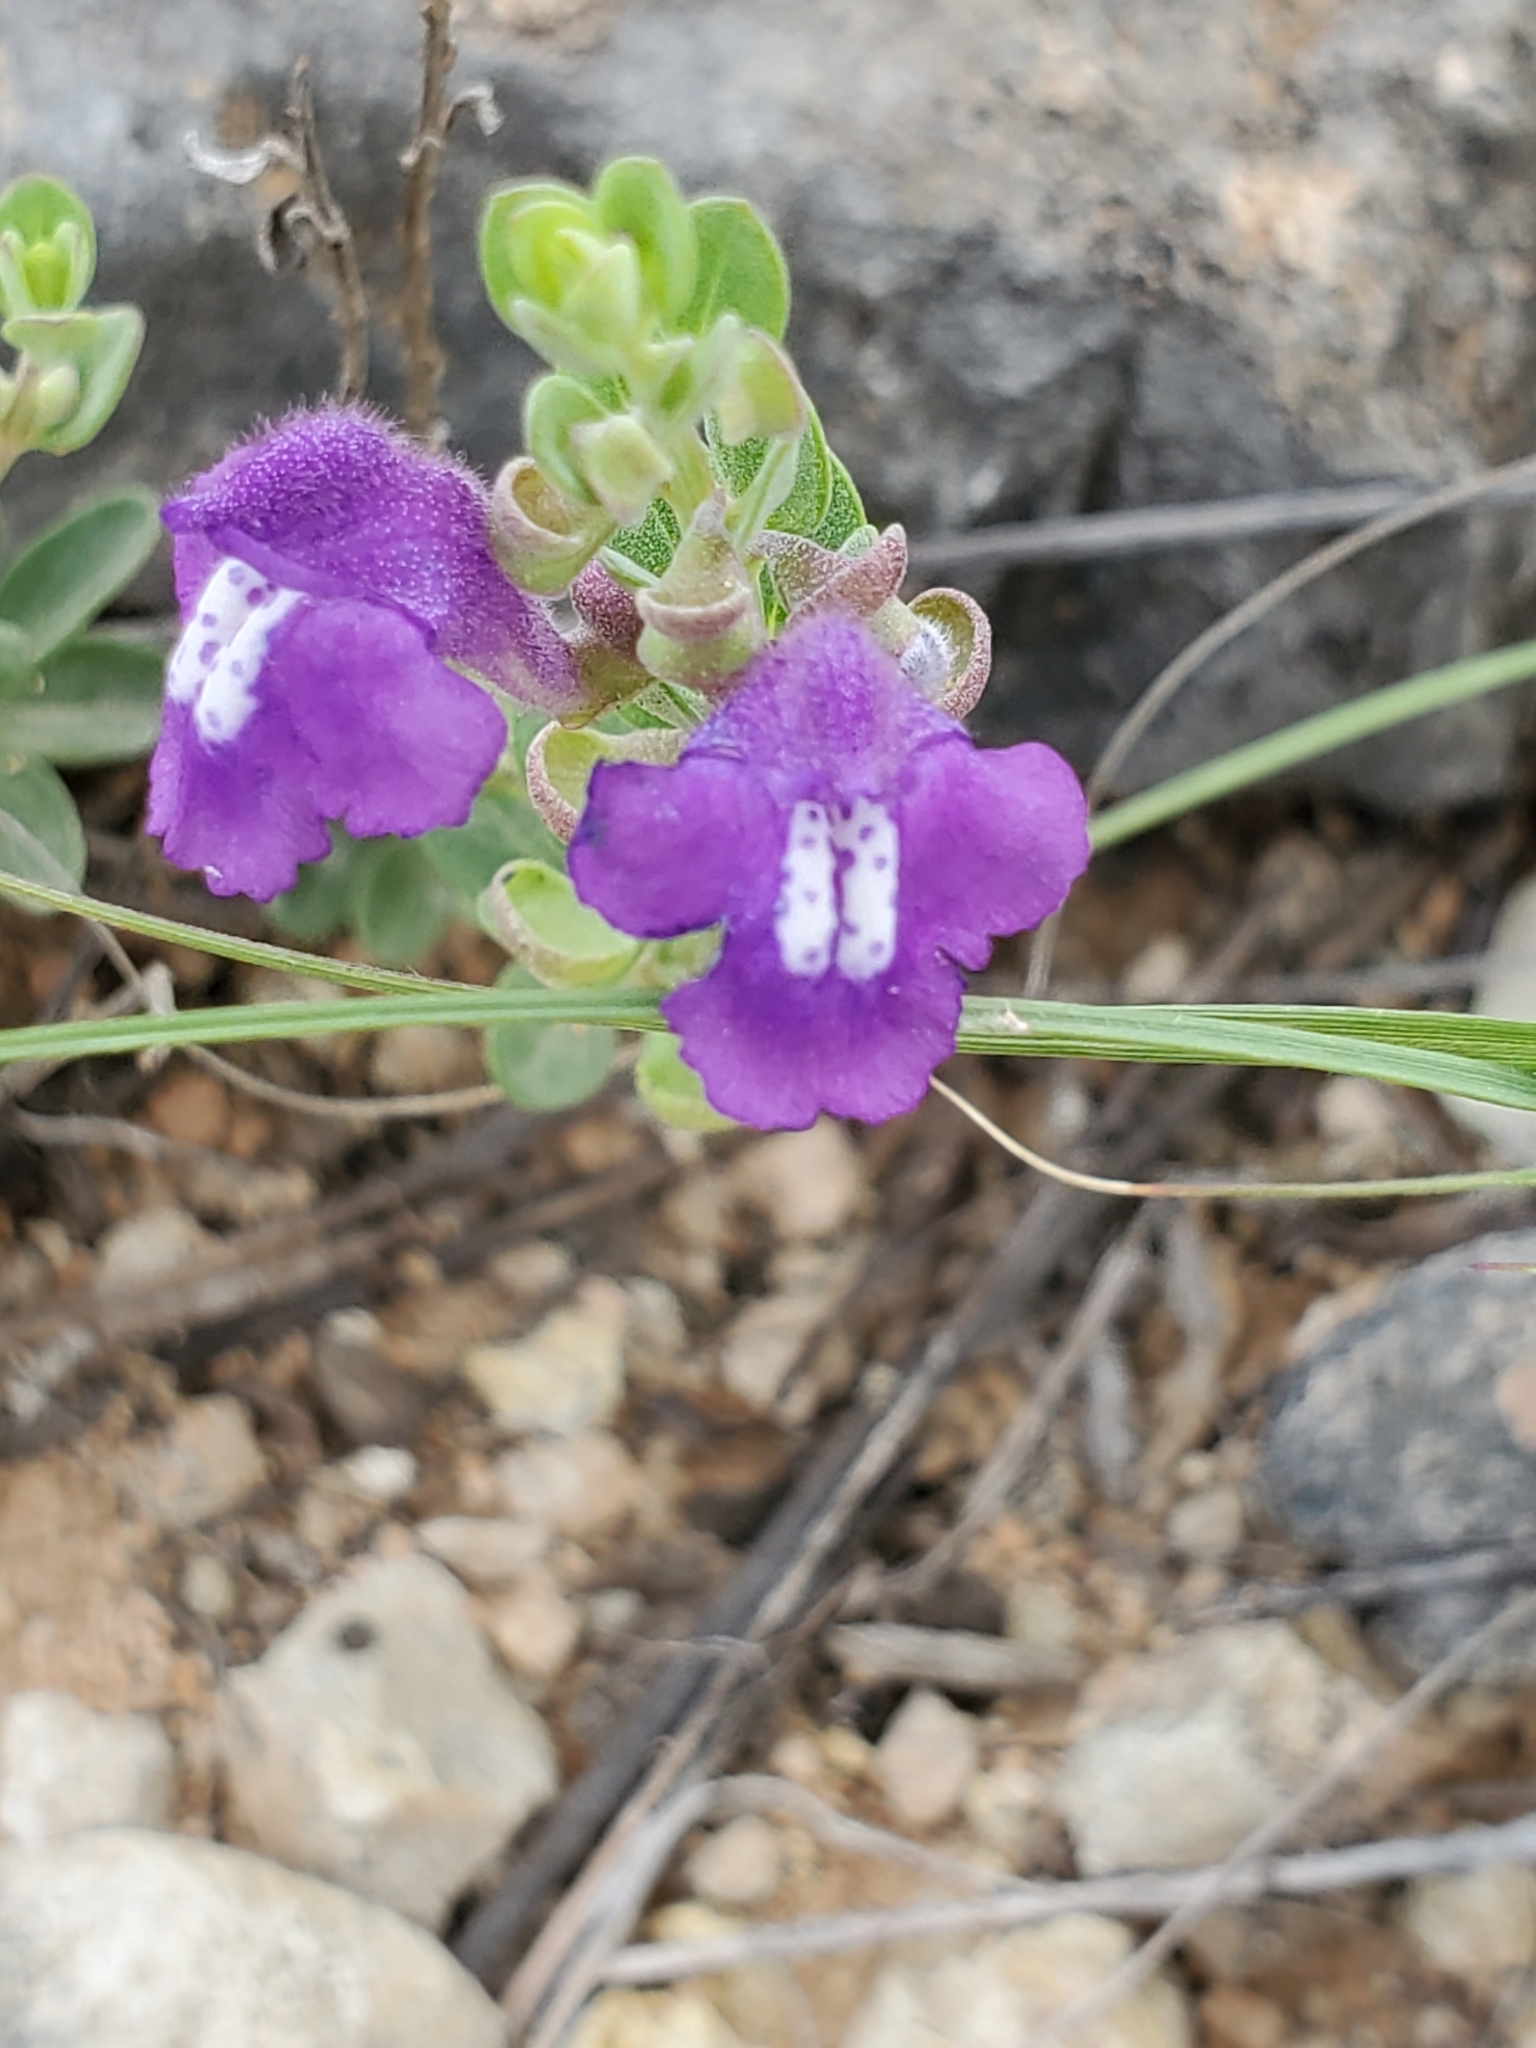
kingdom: Plantae
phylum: Tracheophyta
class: Magnoliopsida
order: Lamiales
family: Lamiaceae
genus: Scutellaria
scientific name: Scutellaria wrightii
